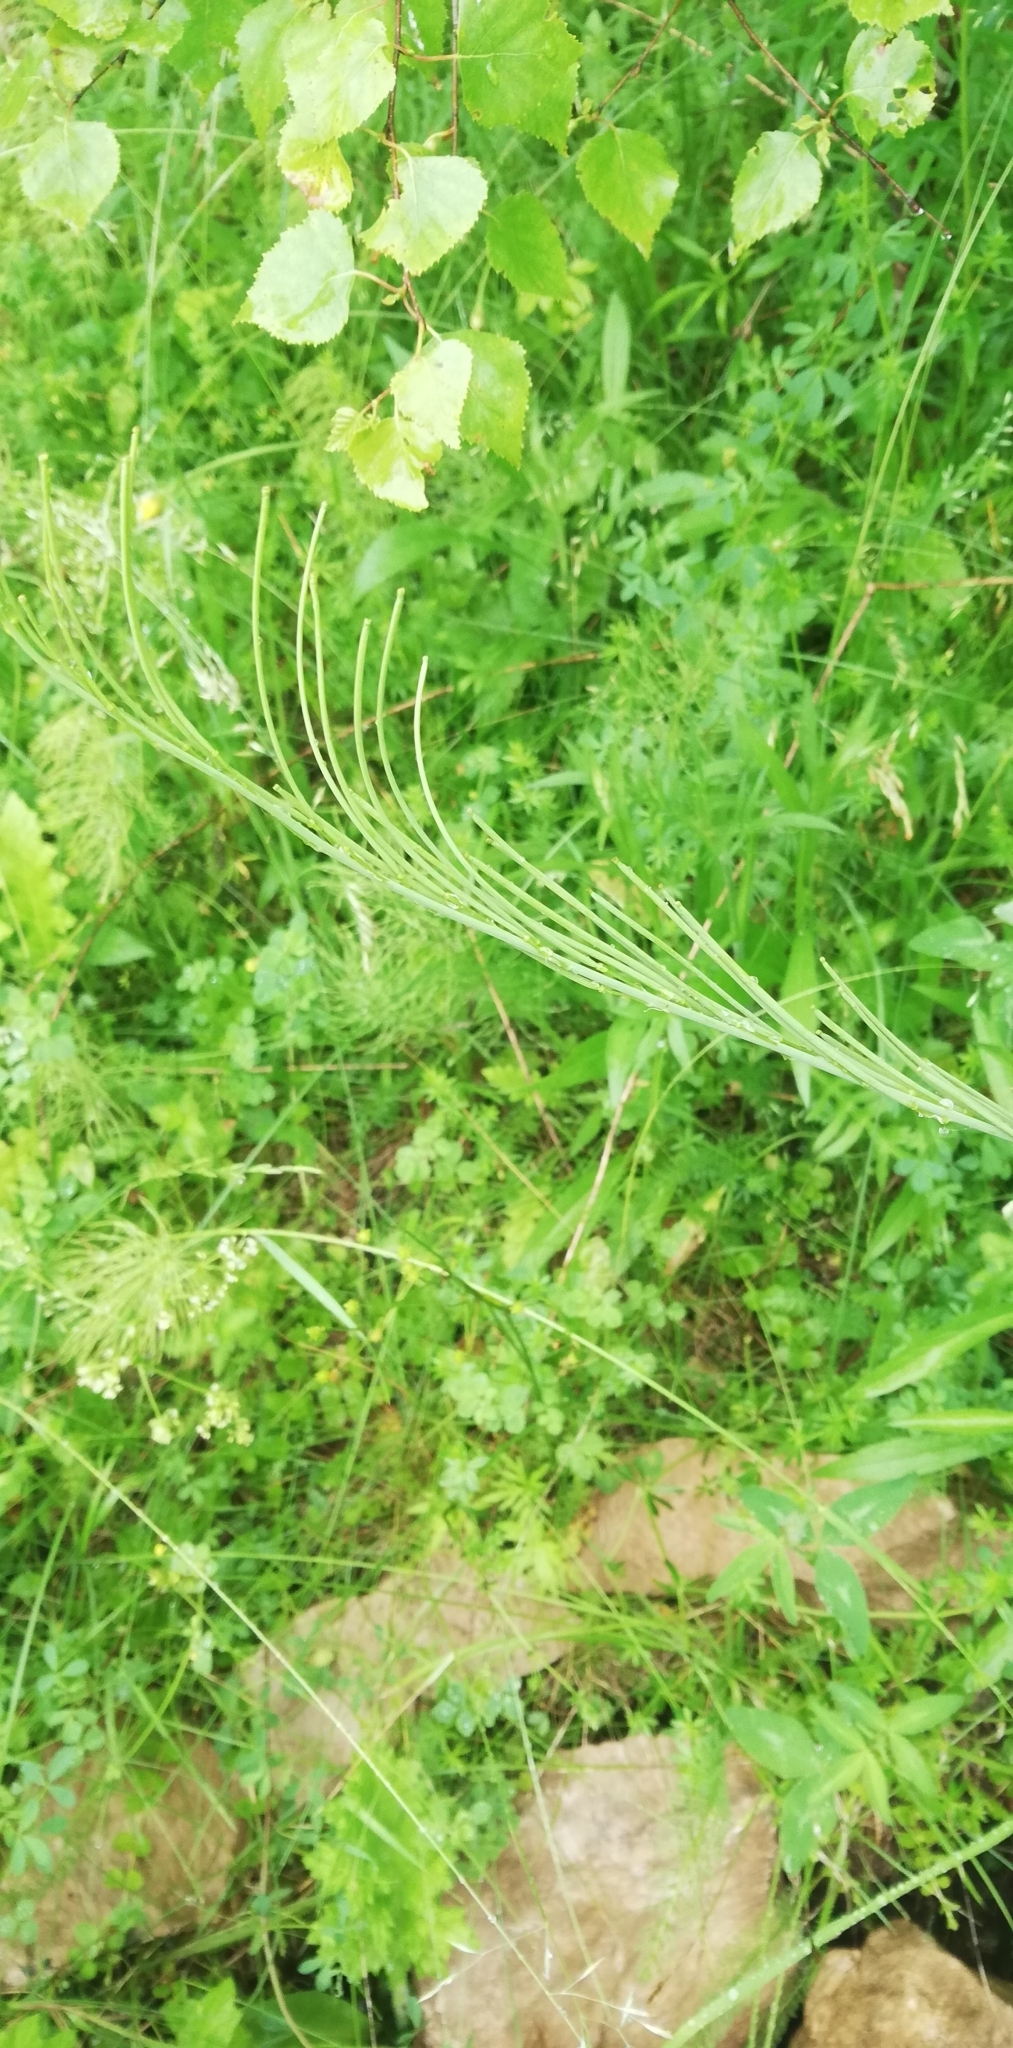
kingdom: Plantae
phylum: Tracheophyta
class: Magnoliopsida
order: Brassicales
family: Brassicaceae
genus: Turritis
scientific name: Turritis glabra
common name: Tower rockcress
